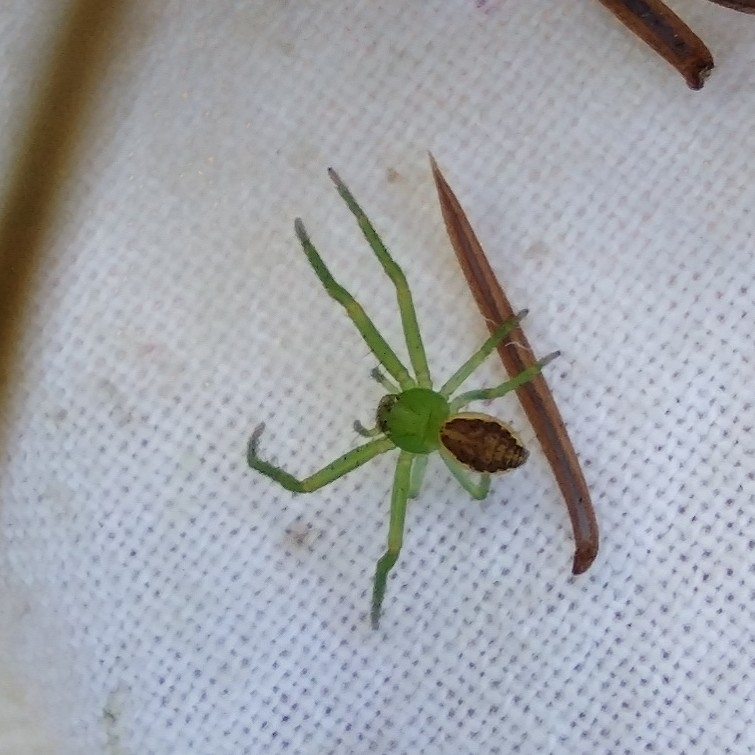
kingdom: Animalia
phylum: Arthropoda
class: Arachnida
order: Araneae
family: Thomisidae
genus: Diaea
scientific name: Diaea dorsata
